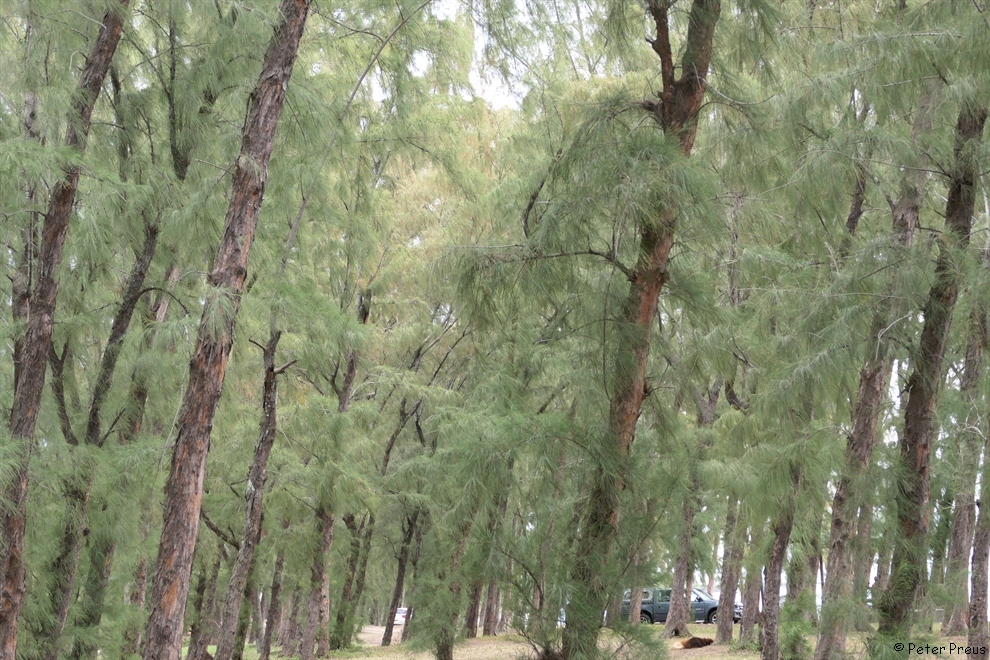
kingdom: Plantae
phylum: Tracheophyta
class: Magnoliopsida
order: Fagales
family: Casuarinaceae
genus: Casuarina
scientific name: Casuarina equisetifolia
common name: Beach sheoak
